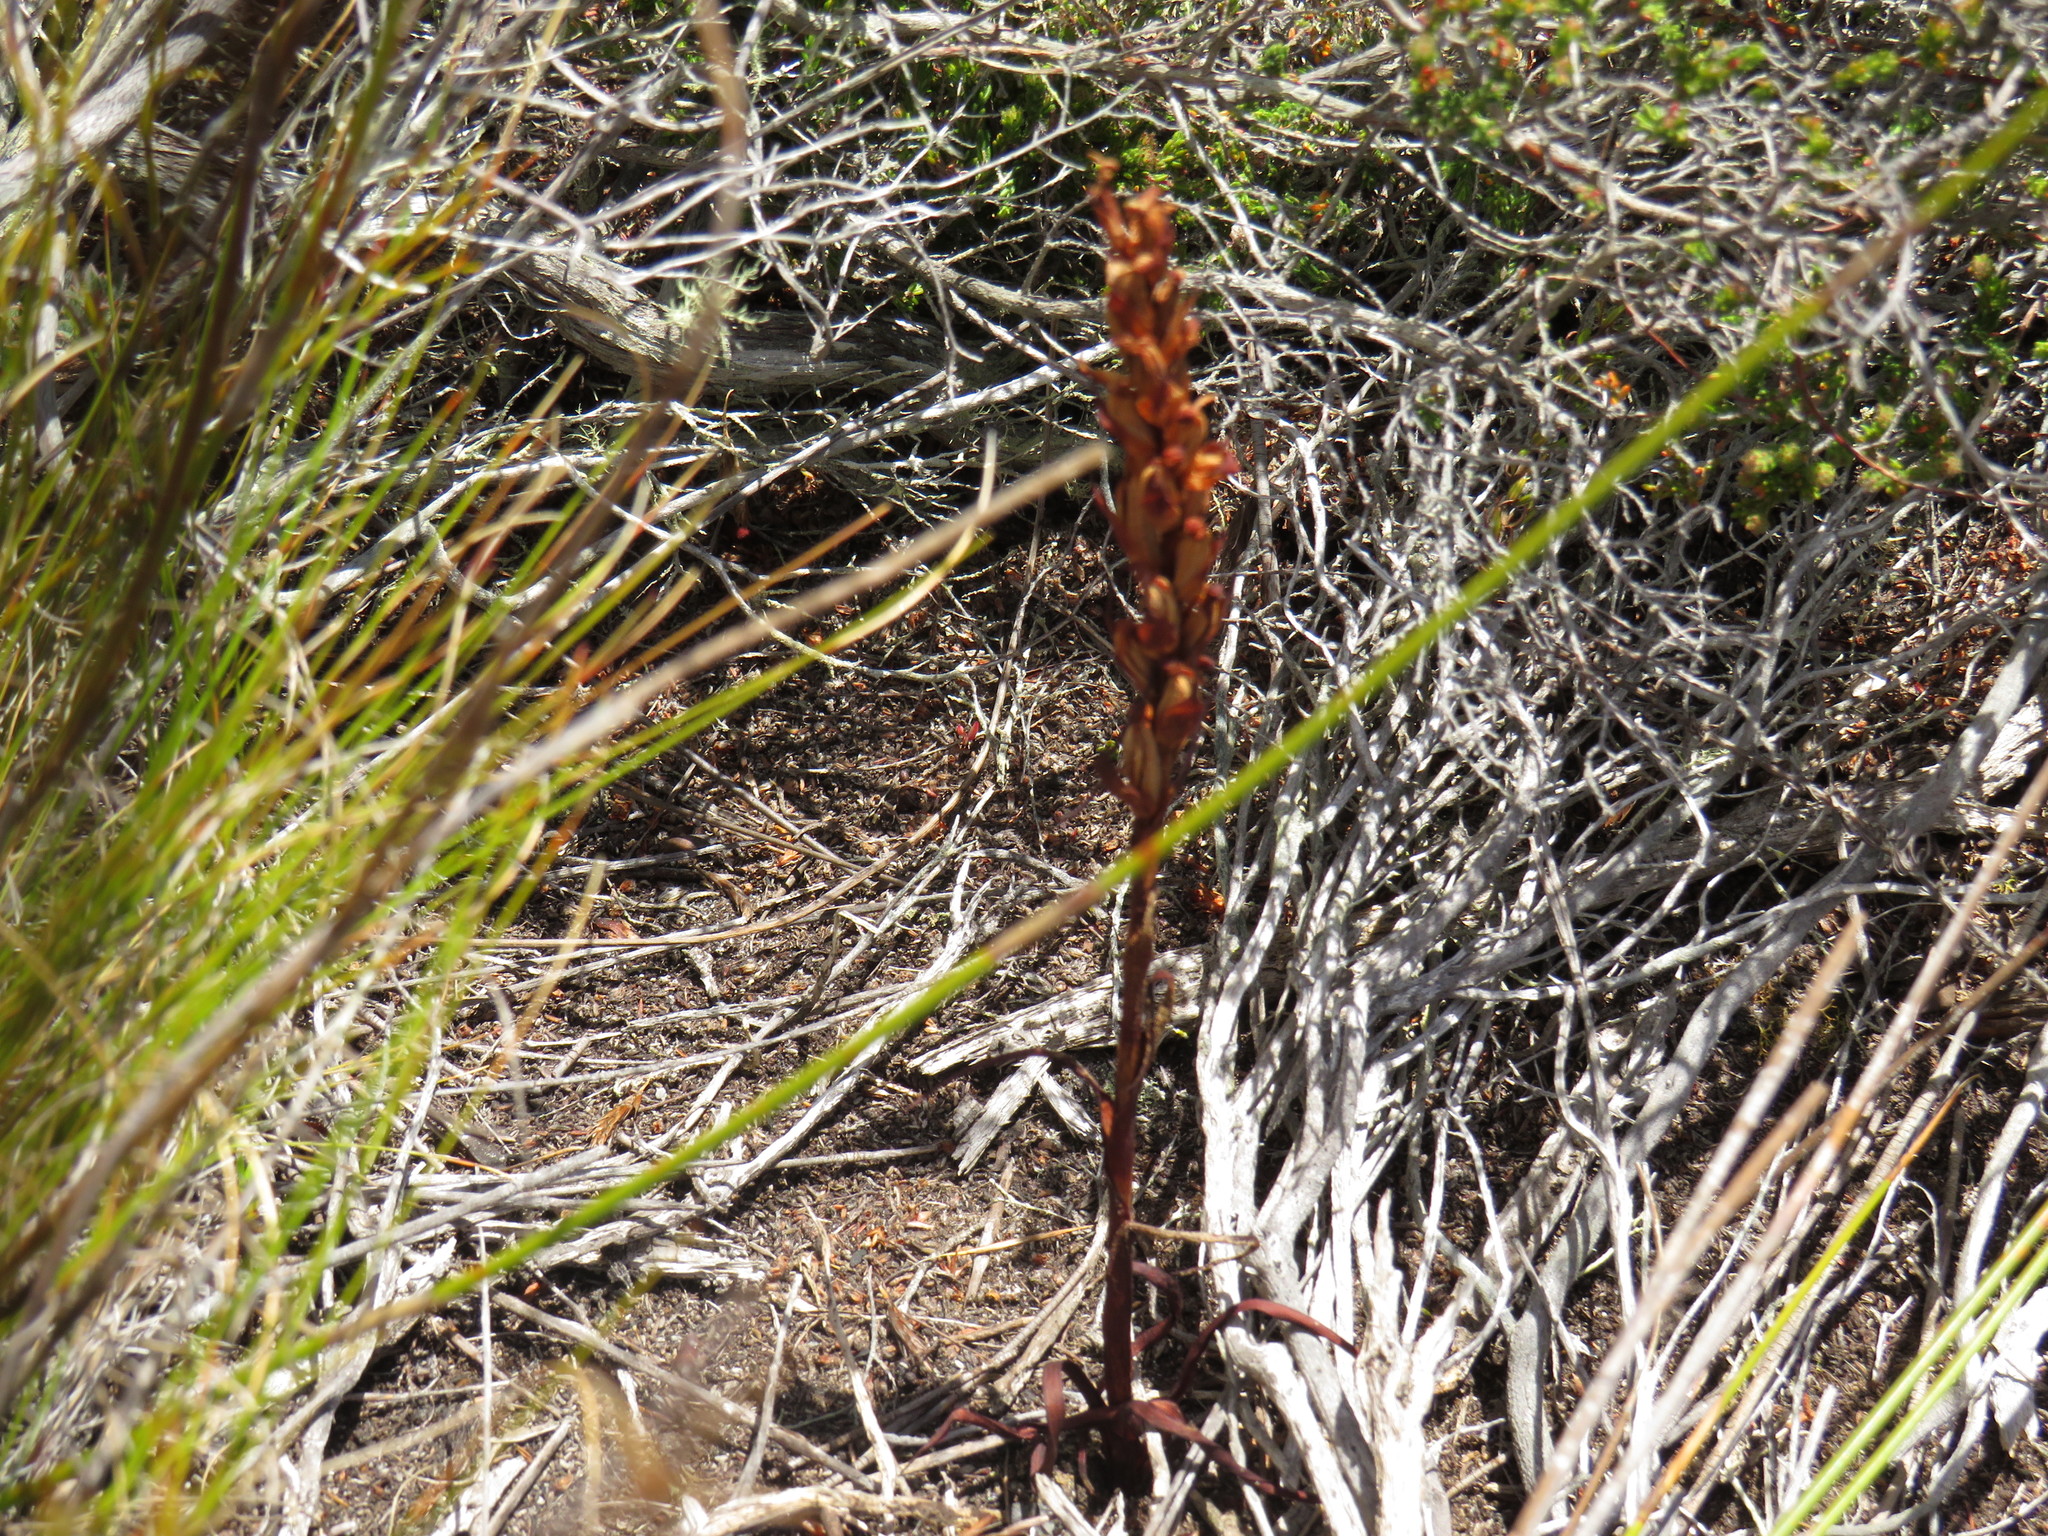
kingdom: Plantae
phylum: Tracheophyta
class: Liliopsida
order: Asparagales
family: Orchidaceae
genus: Disa
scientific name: Disa bracteata
